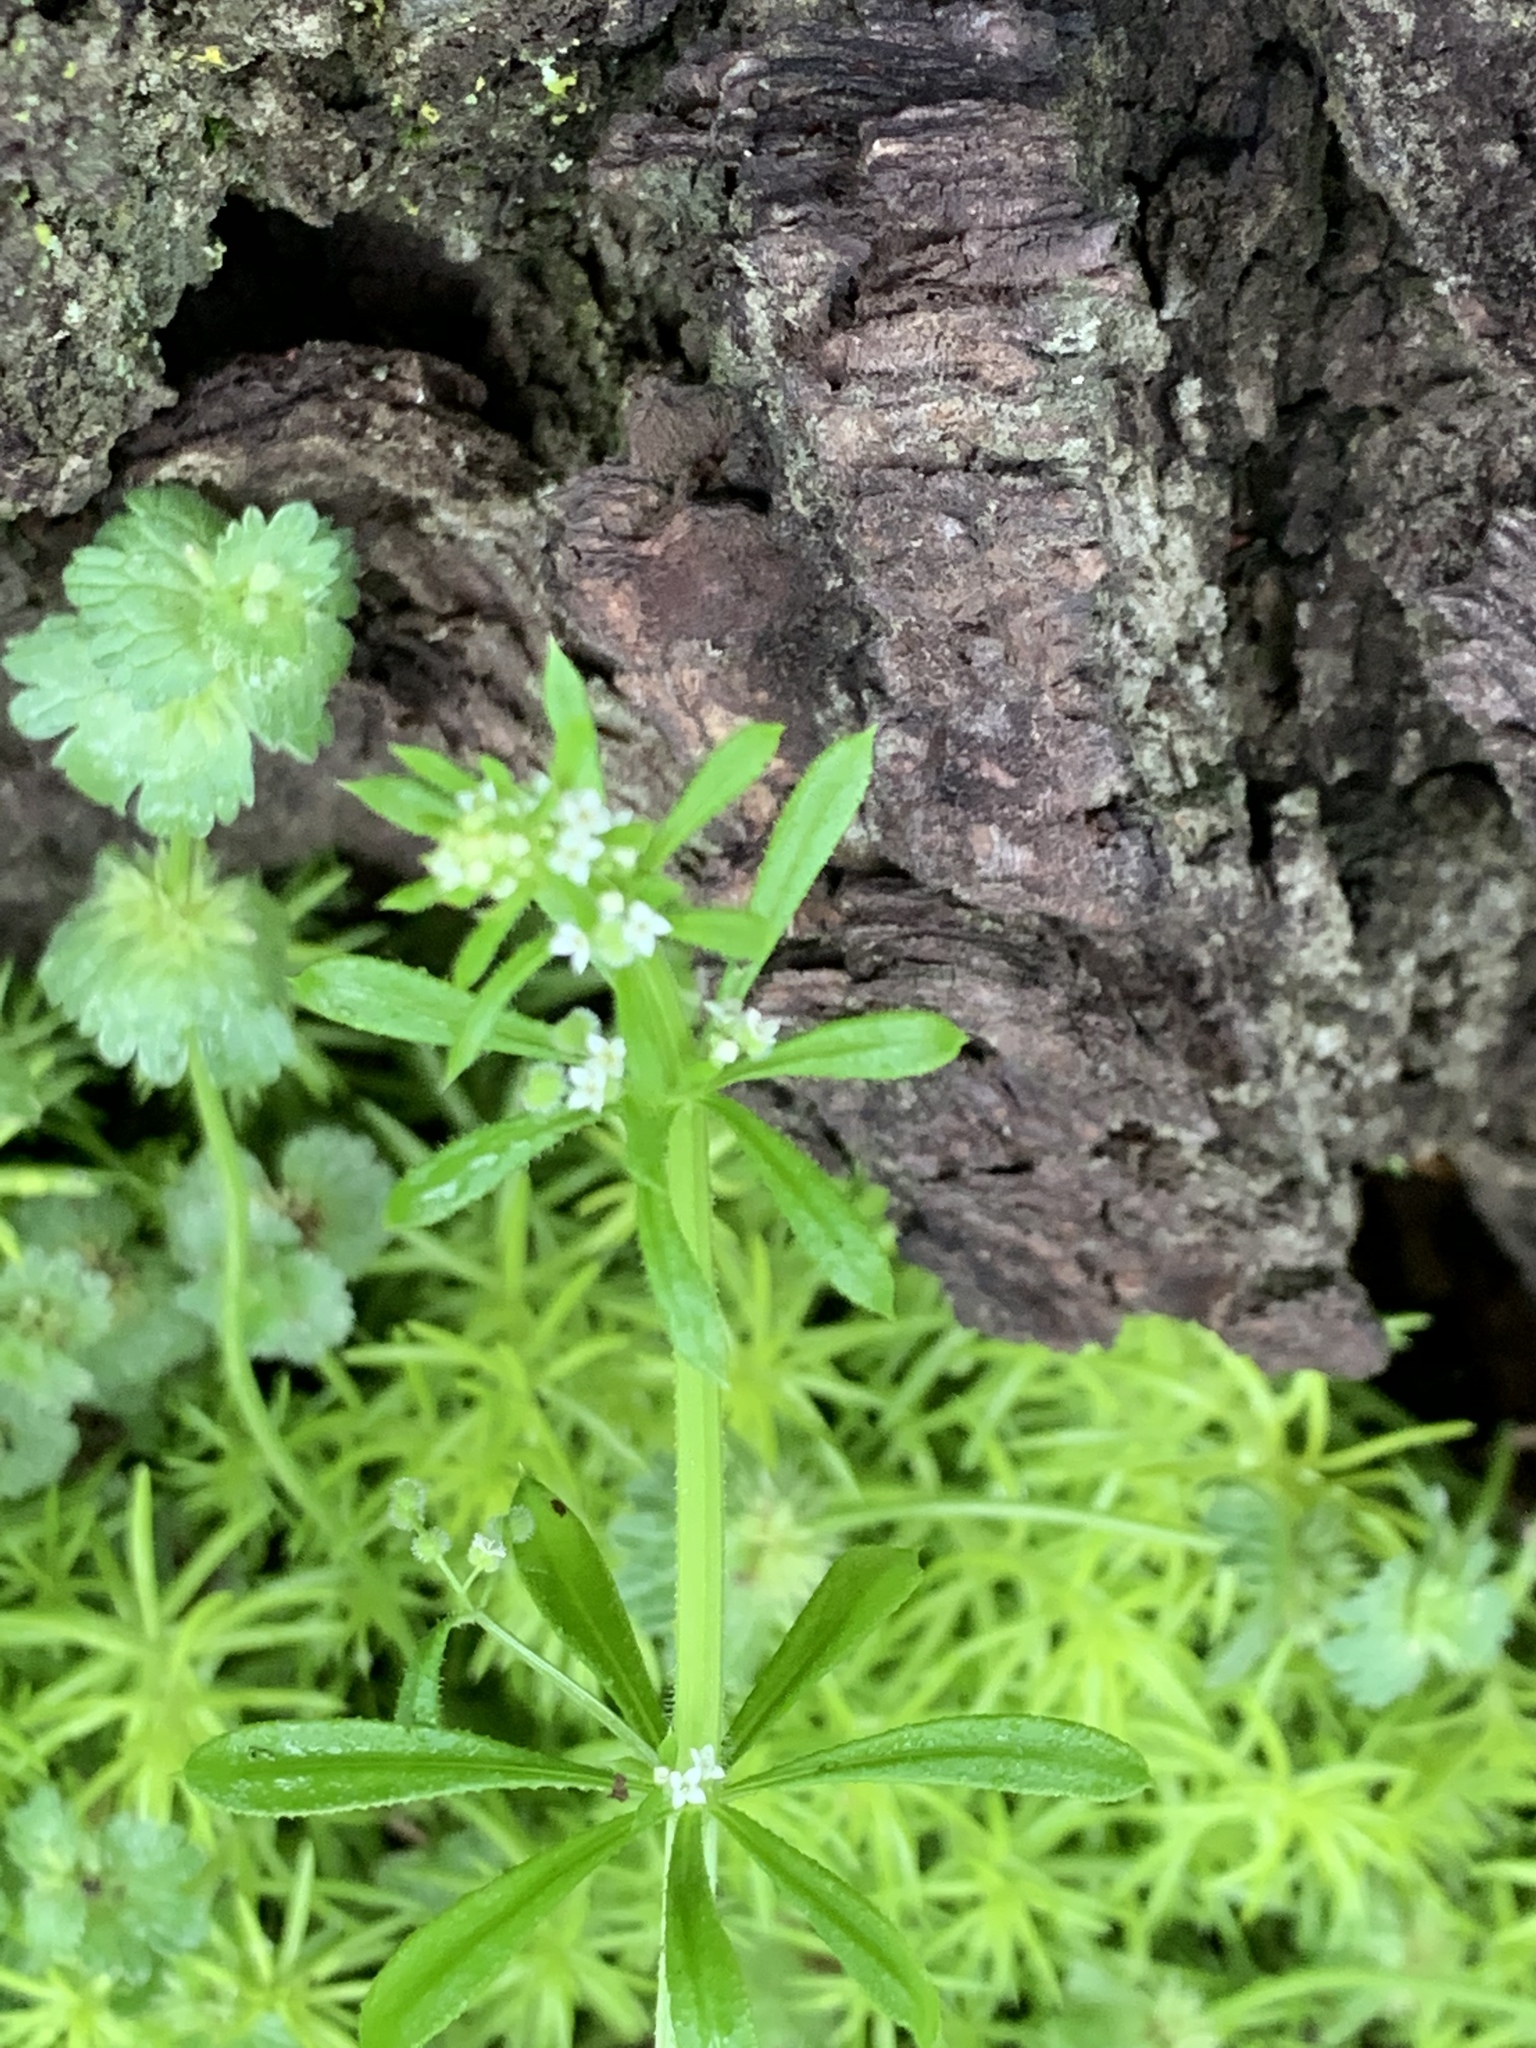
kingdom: Plantae
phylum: Tracheophyta
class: Magnoliopsida
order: Gentianales
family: Rubiaceae
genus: Galium
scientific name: Galium aparine
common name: Cleavers
